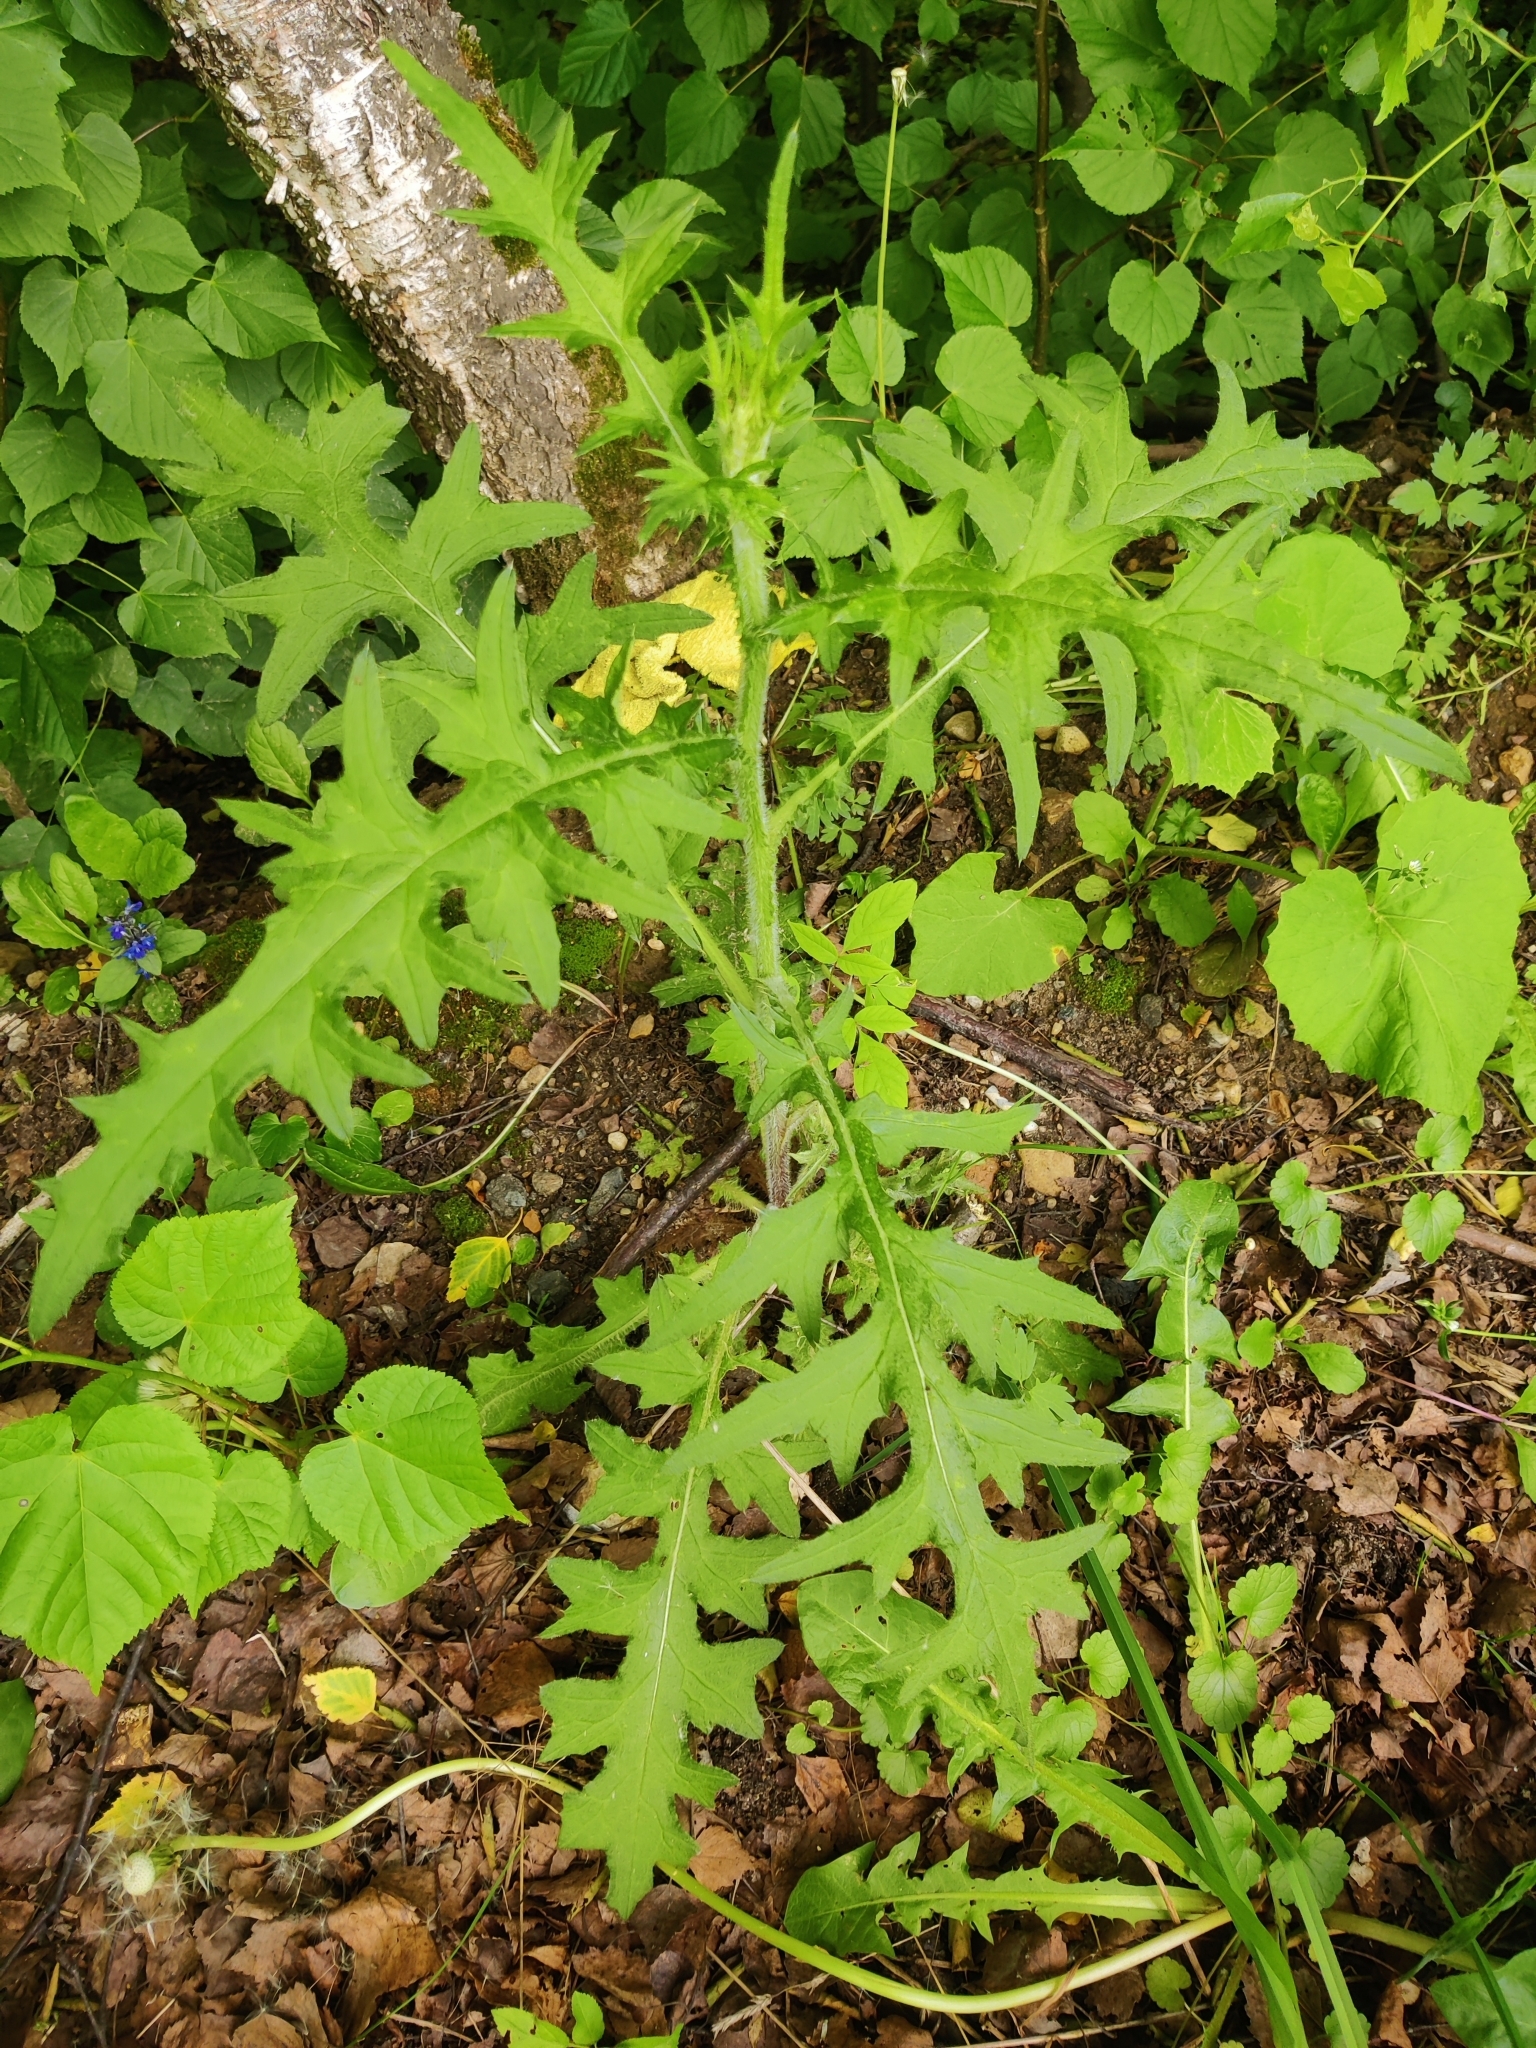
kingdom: Plantae
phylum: Tracheophyta
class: Magnoliopsida
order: Asterales
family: Asteraceae
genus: Cirsium
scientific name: Cirsium vulgare
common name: Bull thistle
